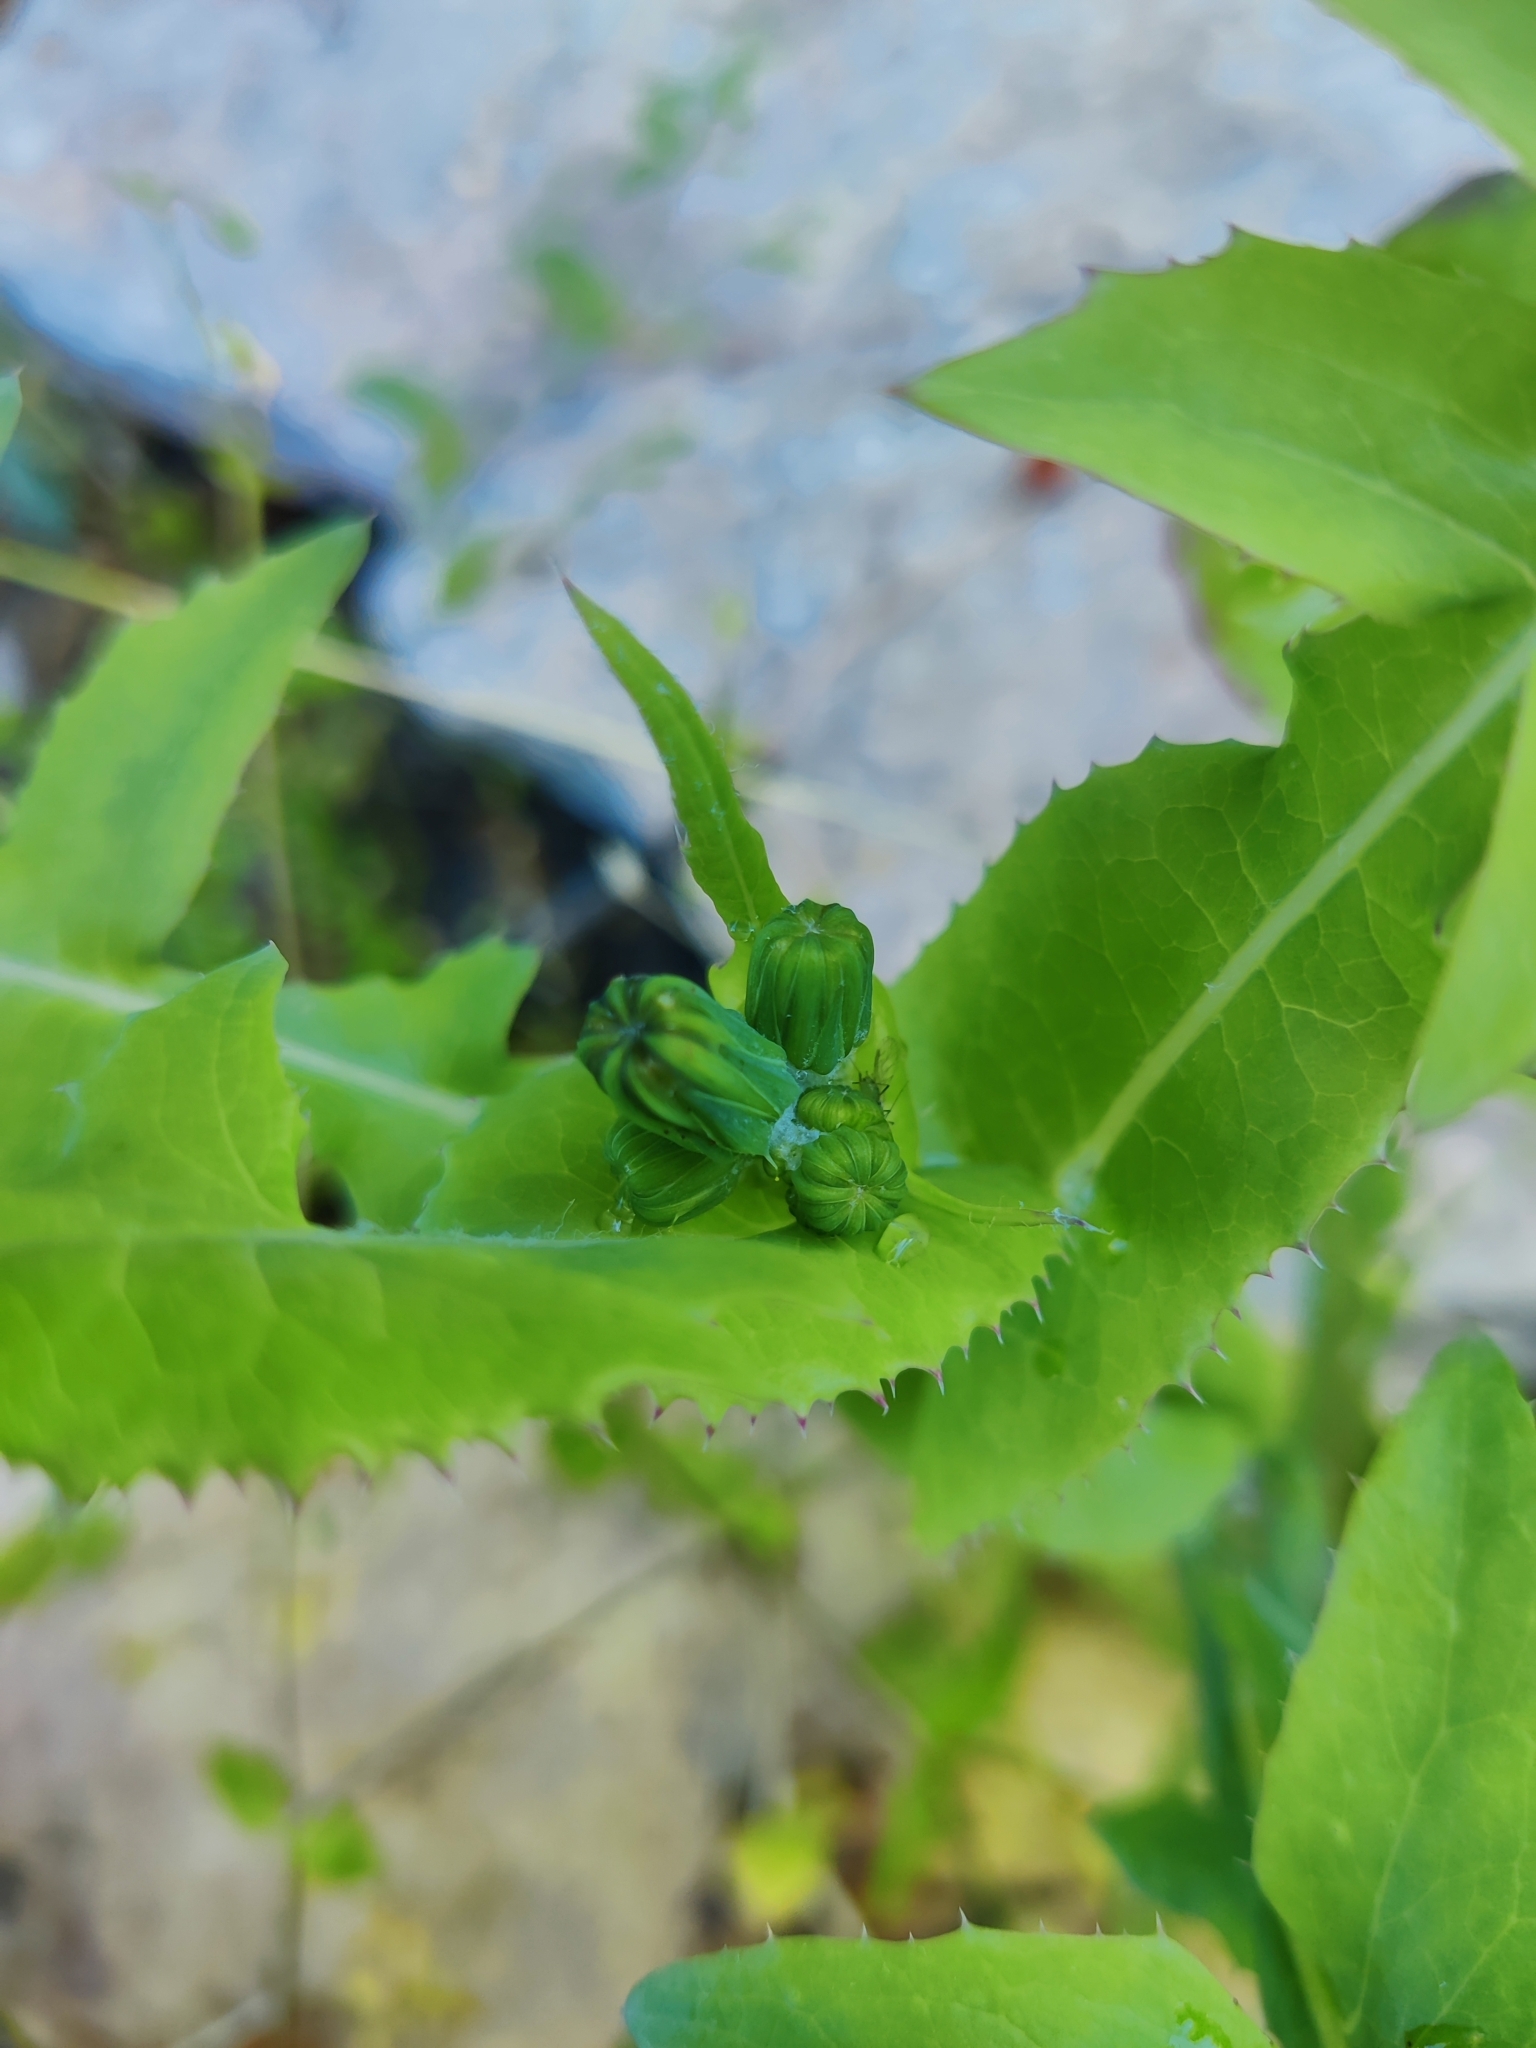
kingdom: Plantae
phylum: Tracheophyta
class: Magnoliopsida
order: Asterales
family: Asteraceae
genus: Sonchus
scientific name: Sonchus oleraceus
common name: Common sowthistle
